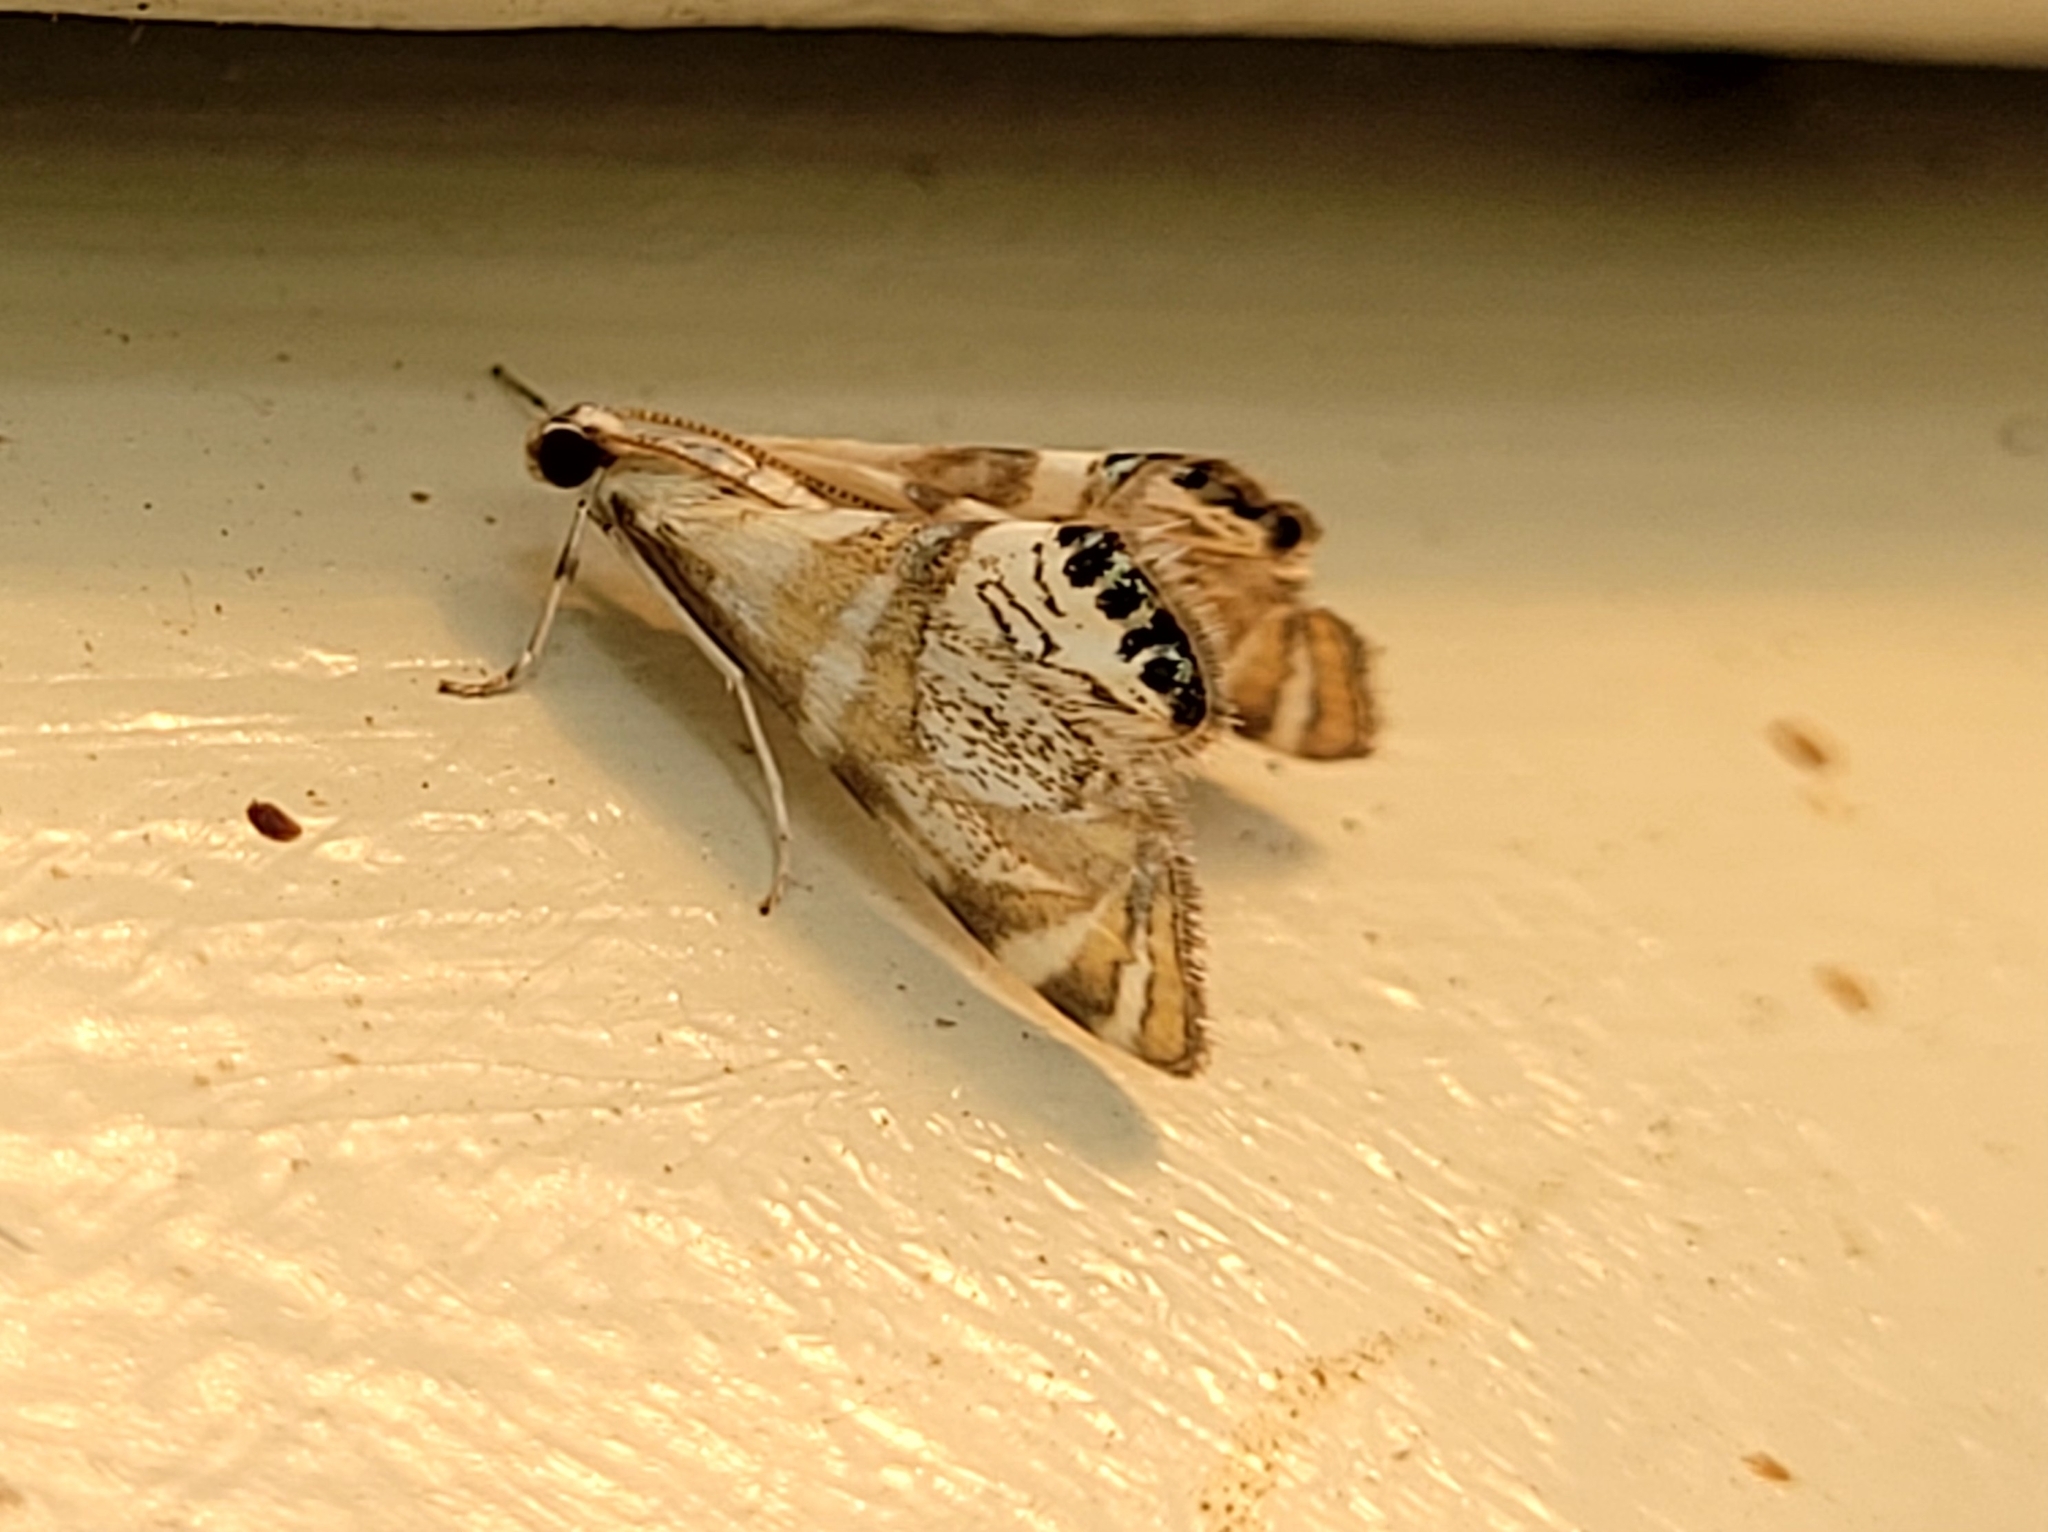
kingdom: Animalia
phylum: Arthropoda
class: Insecta
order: Lepidoptera
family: Crambidae
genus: Petrophila
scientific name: Petrophila kearfottalis
